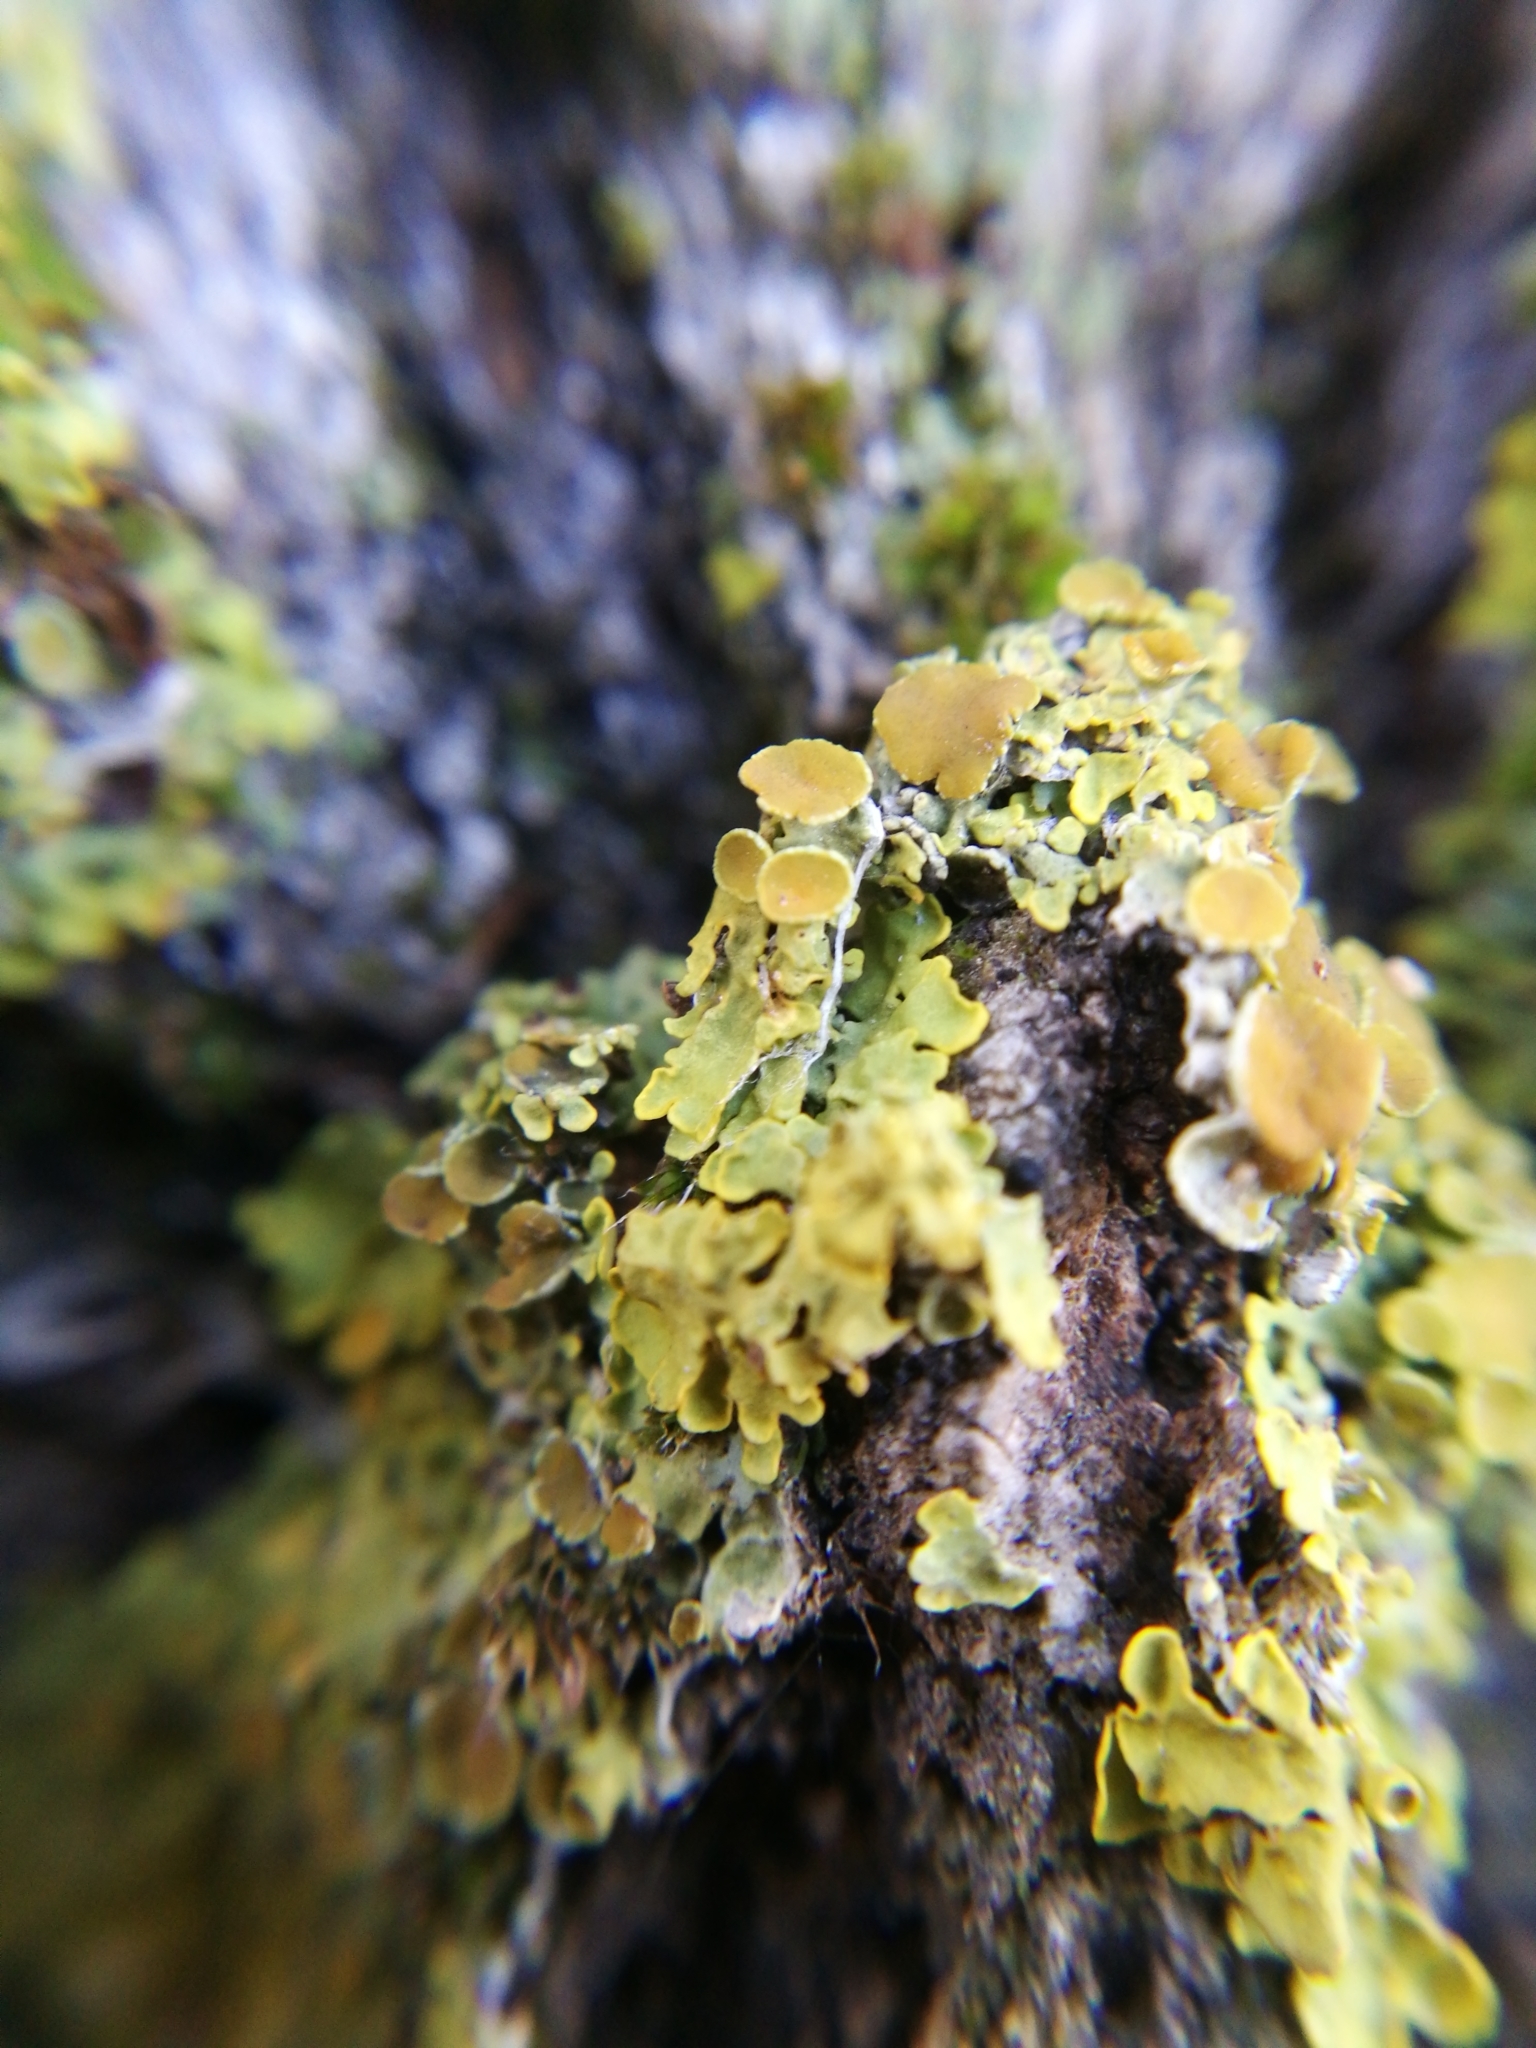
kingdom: Fungi
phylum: Ascomycota
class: Lecanoromycetes
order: Teloschistales
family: Teloschistaceae
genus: Xanthoria
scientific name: Xanthoria parietina
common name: Common orange lichen
